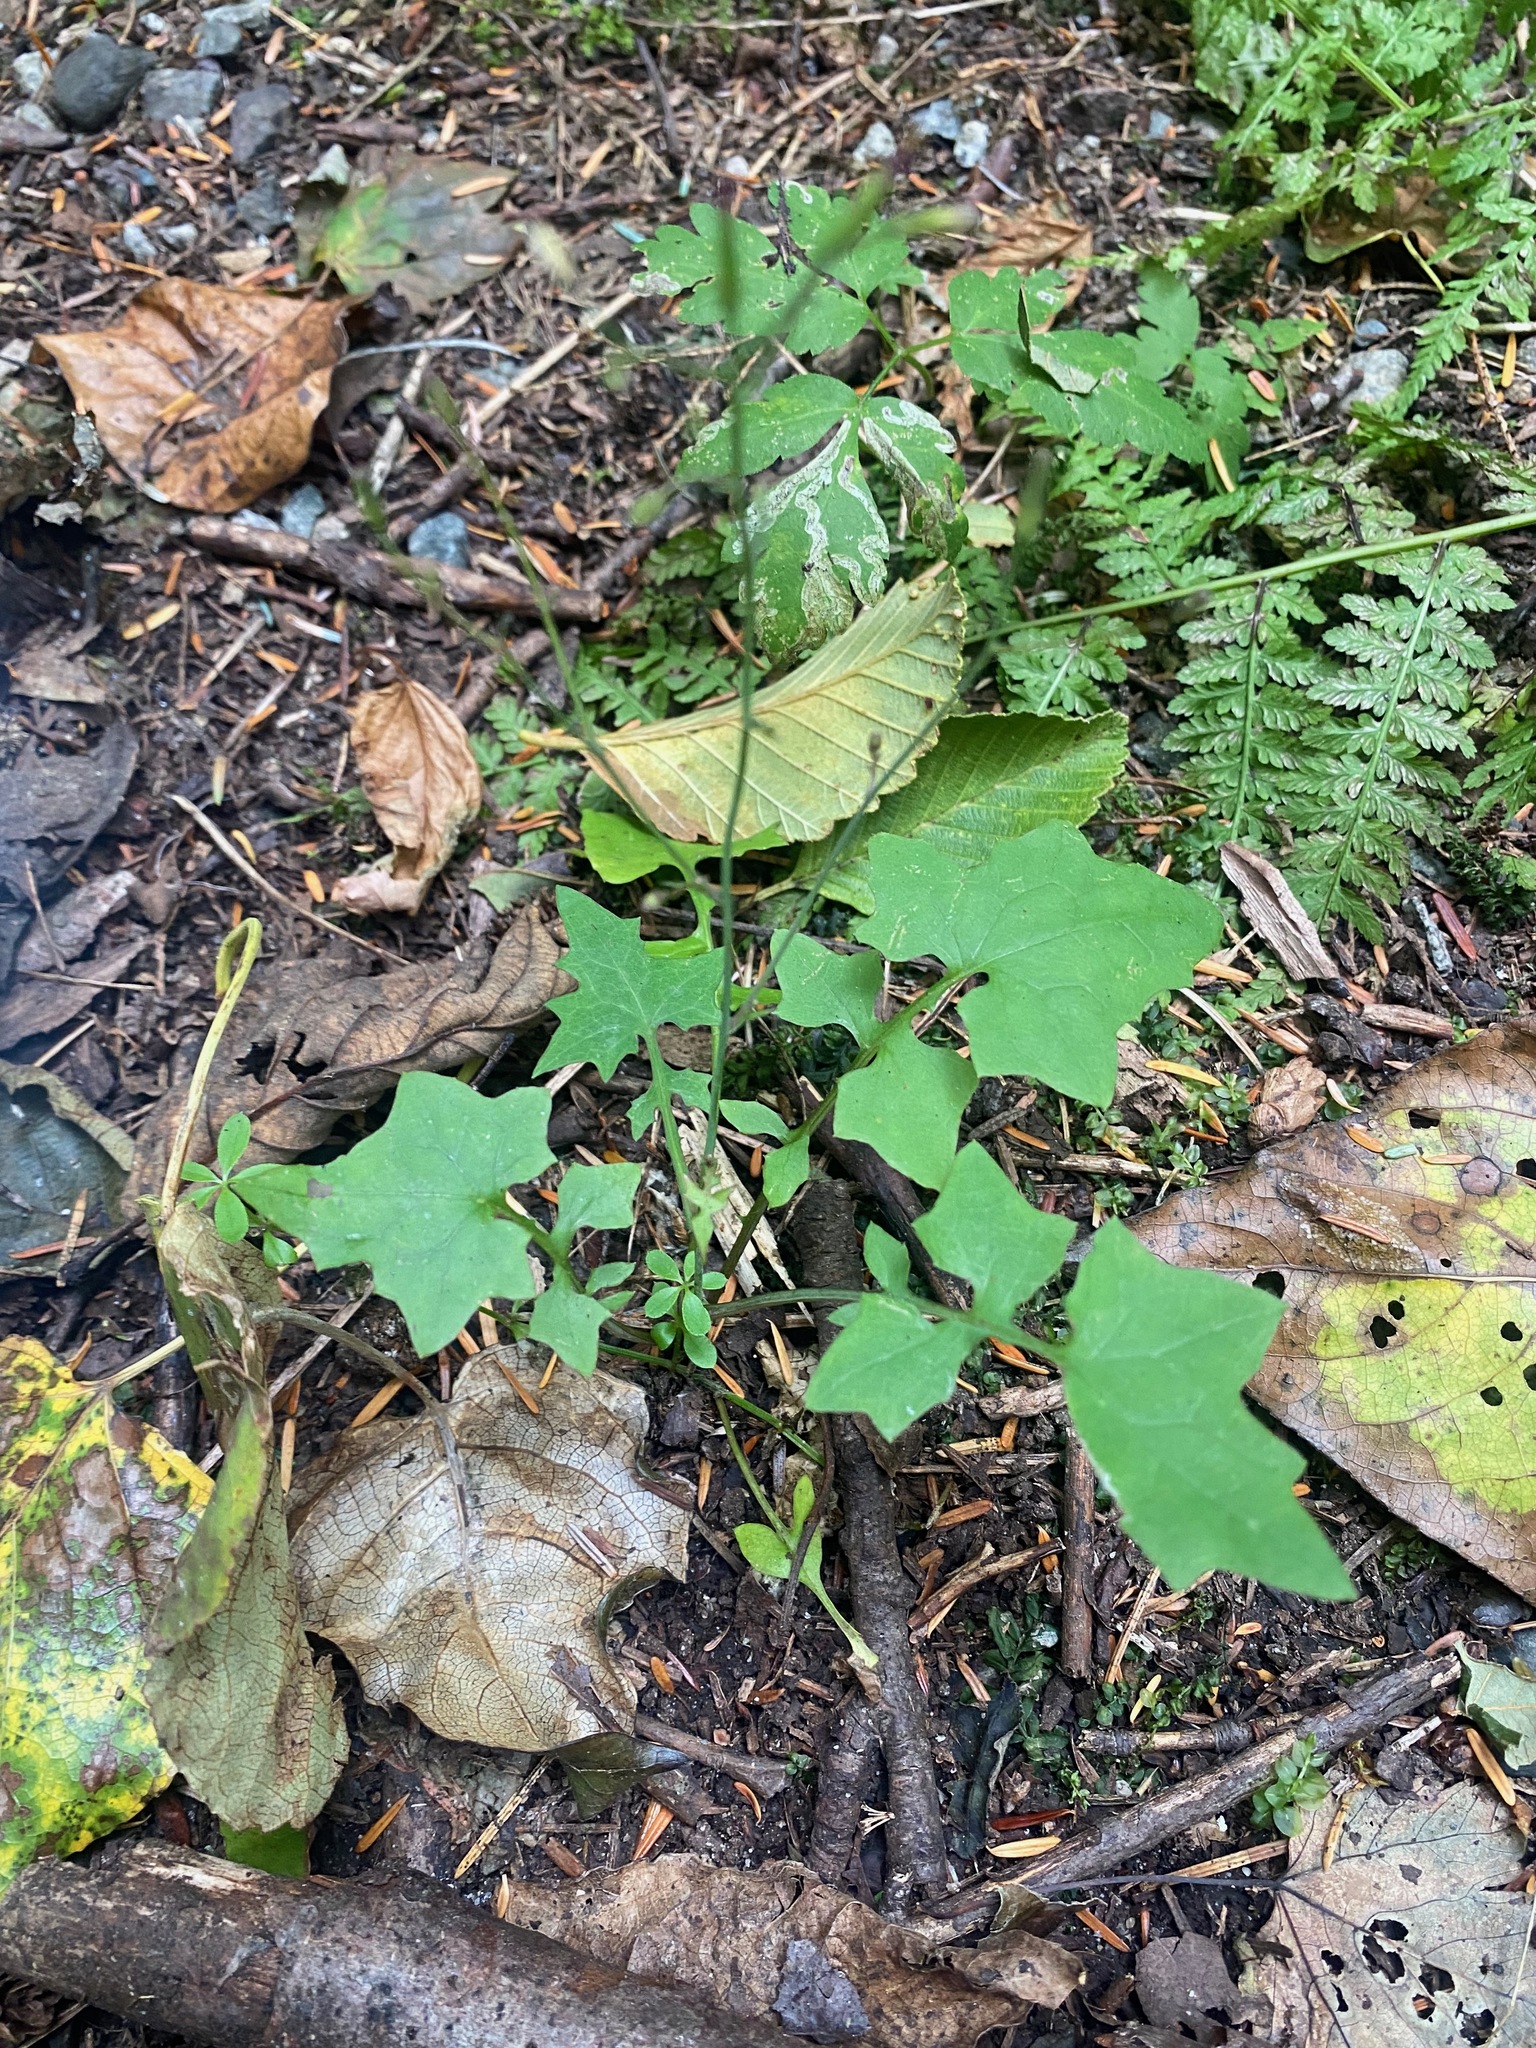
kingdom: Plantae
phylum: Tracheophyta
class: Magnoliopsida
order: Asterales
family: Asteraceae
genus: Mycelis
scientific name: Mycelis muralis
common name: Wall lettuce
